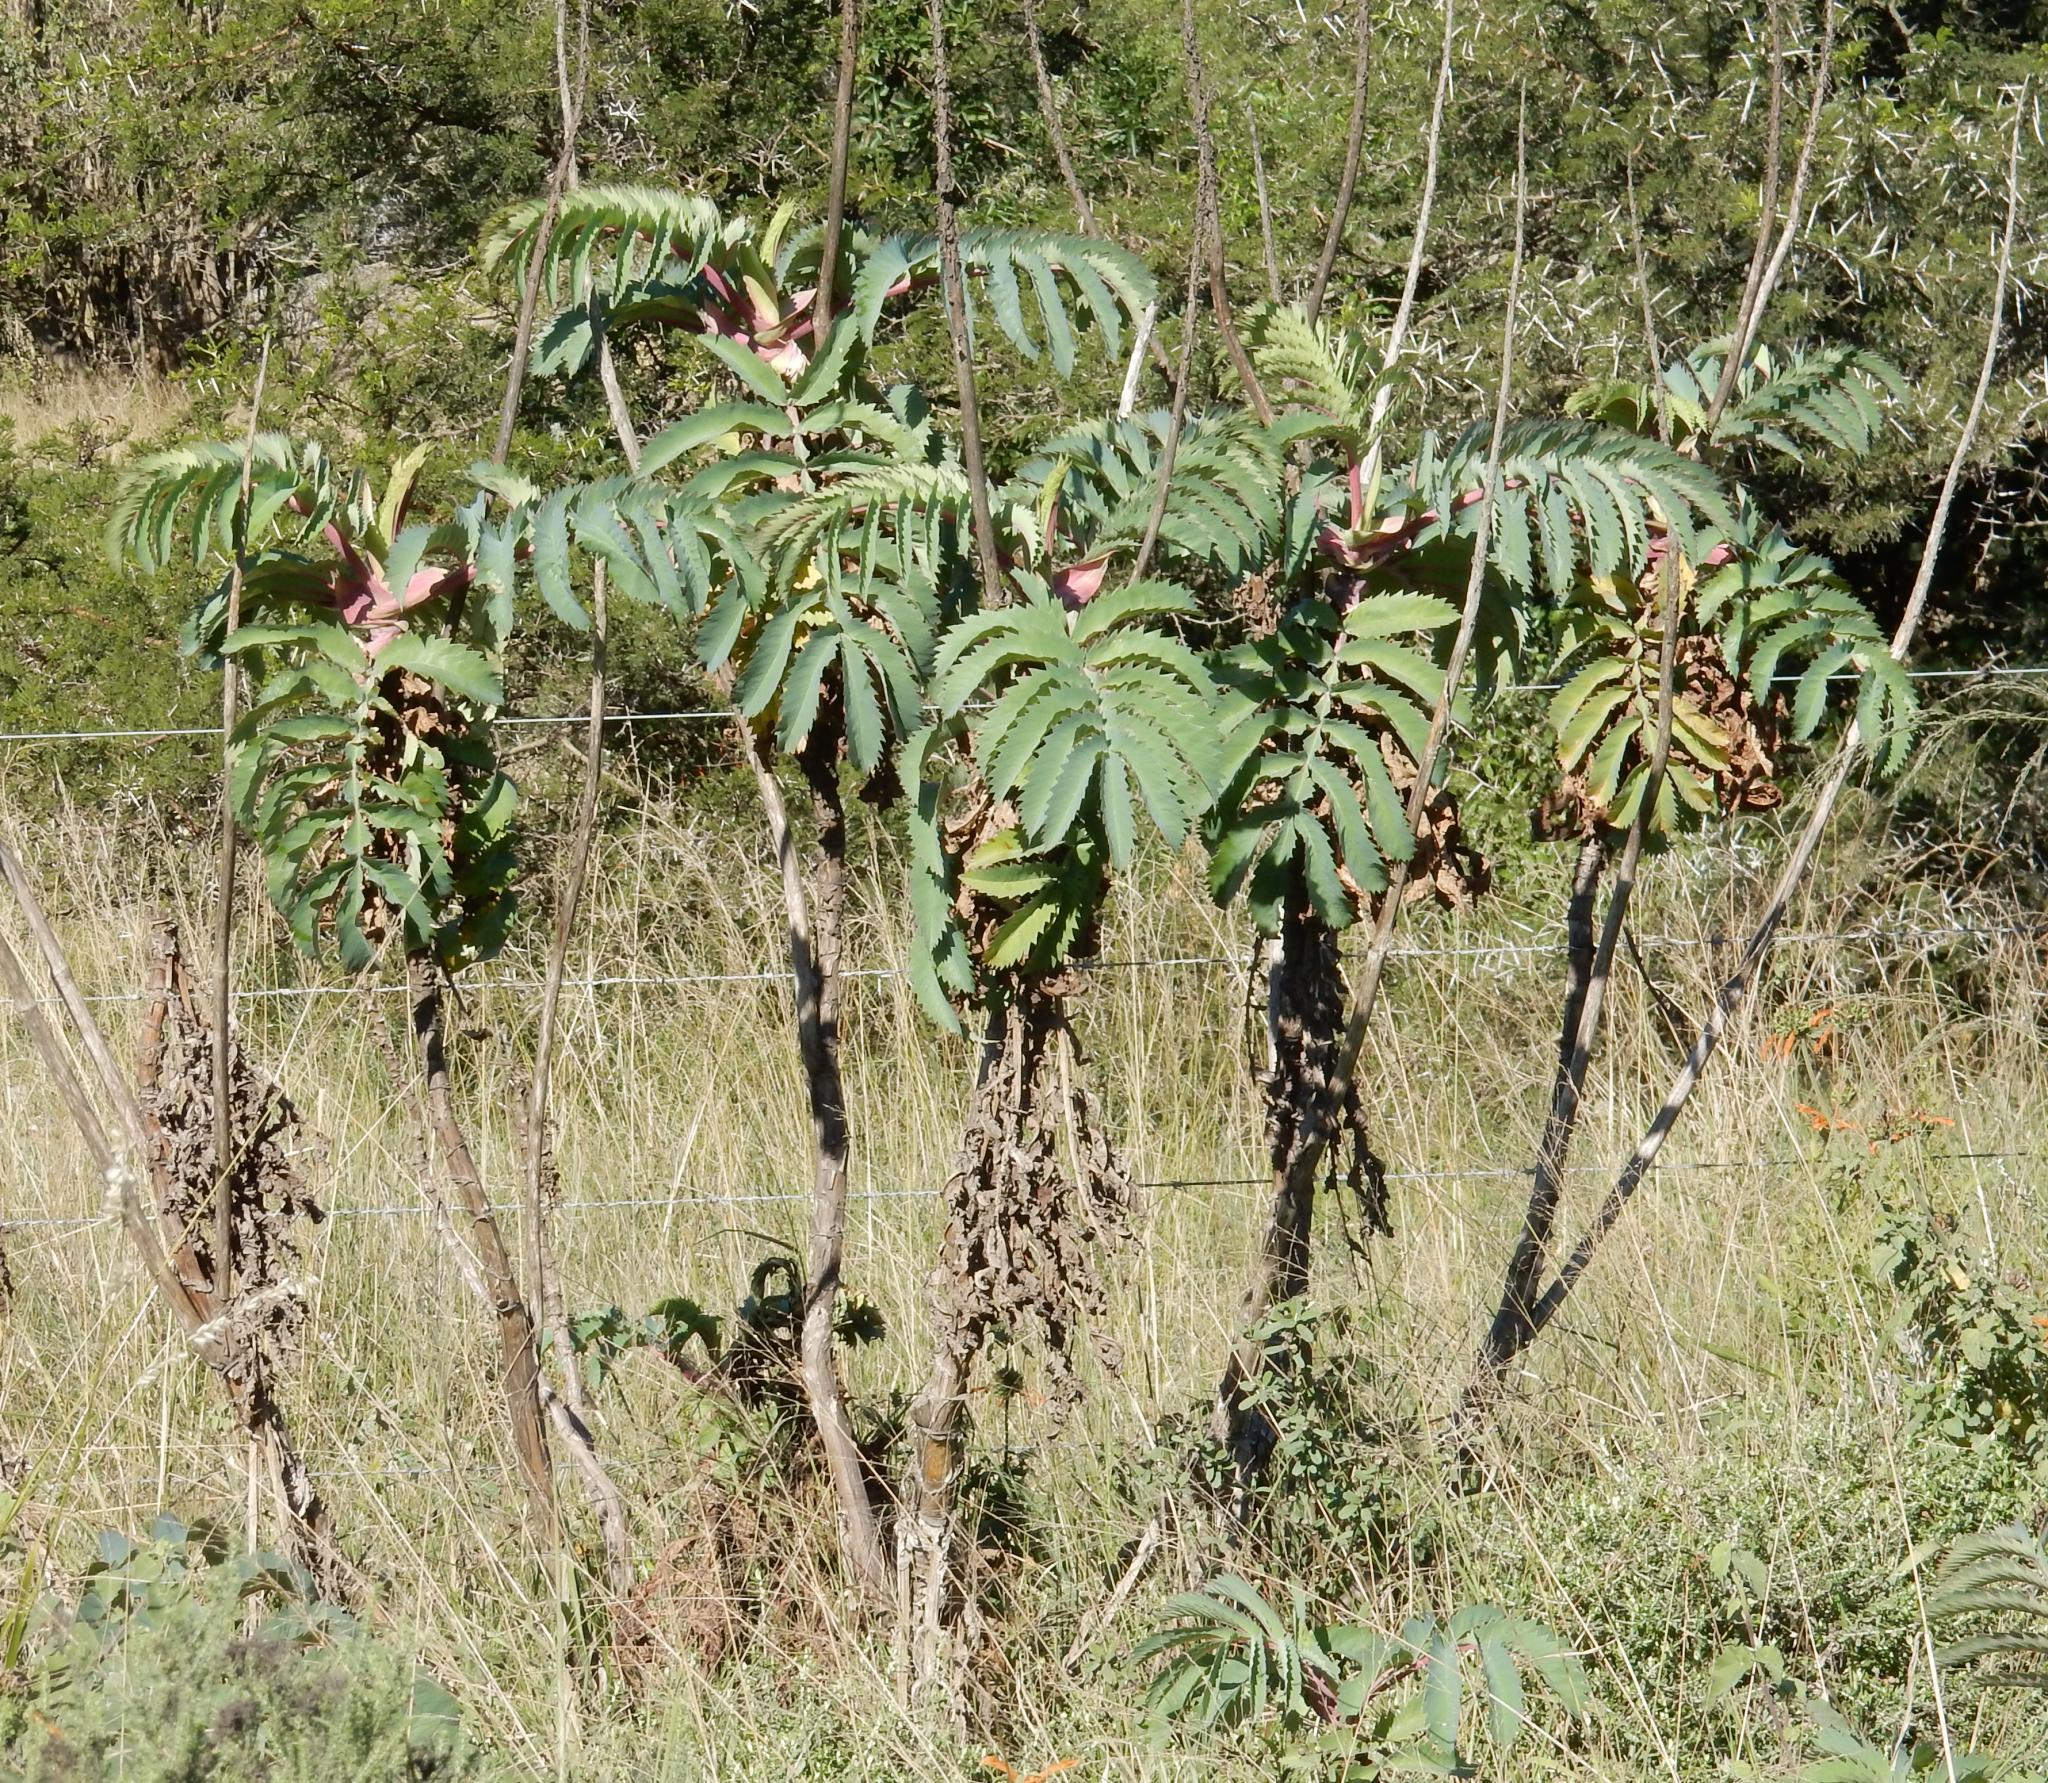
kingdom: Plantae
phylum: Tracheophyta
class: Magnoliopsida
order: Geraniales
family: Melianthaceae
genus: Melianthus
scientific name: Melianthus major
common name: Honey-flower
